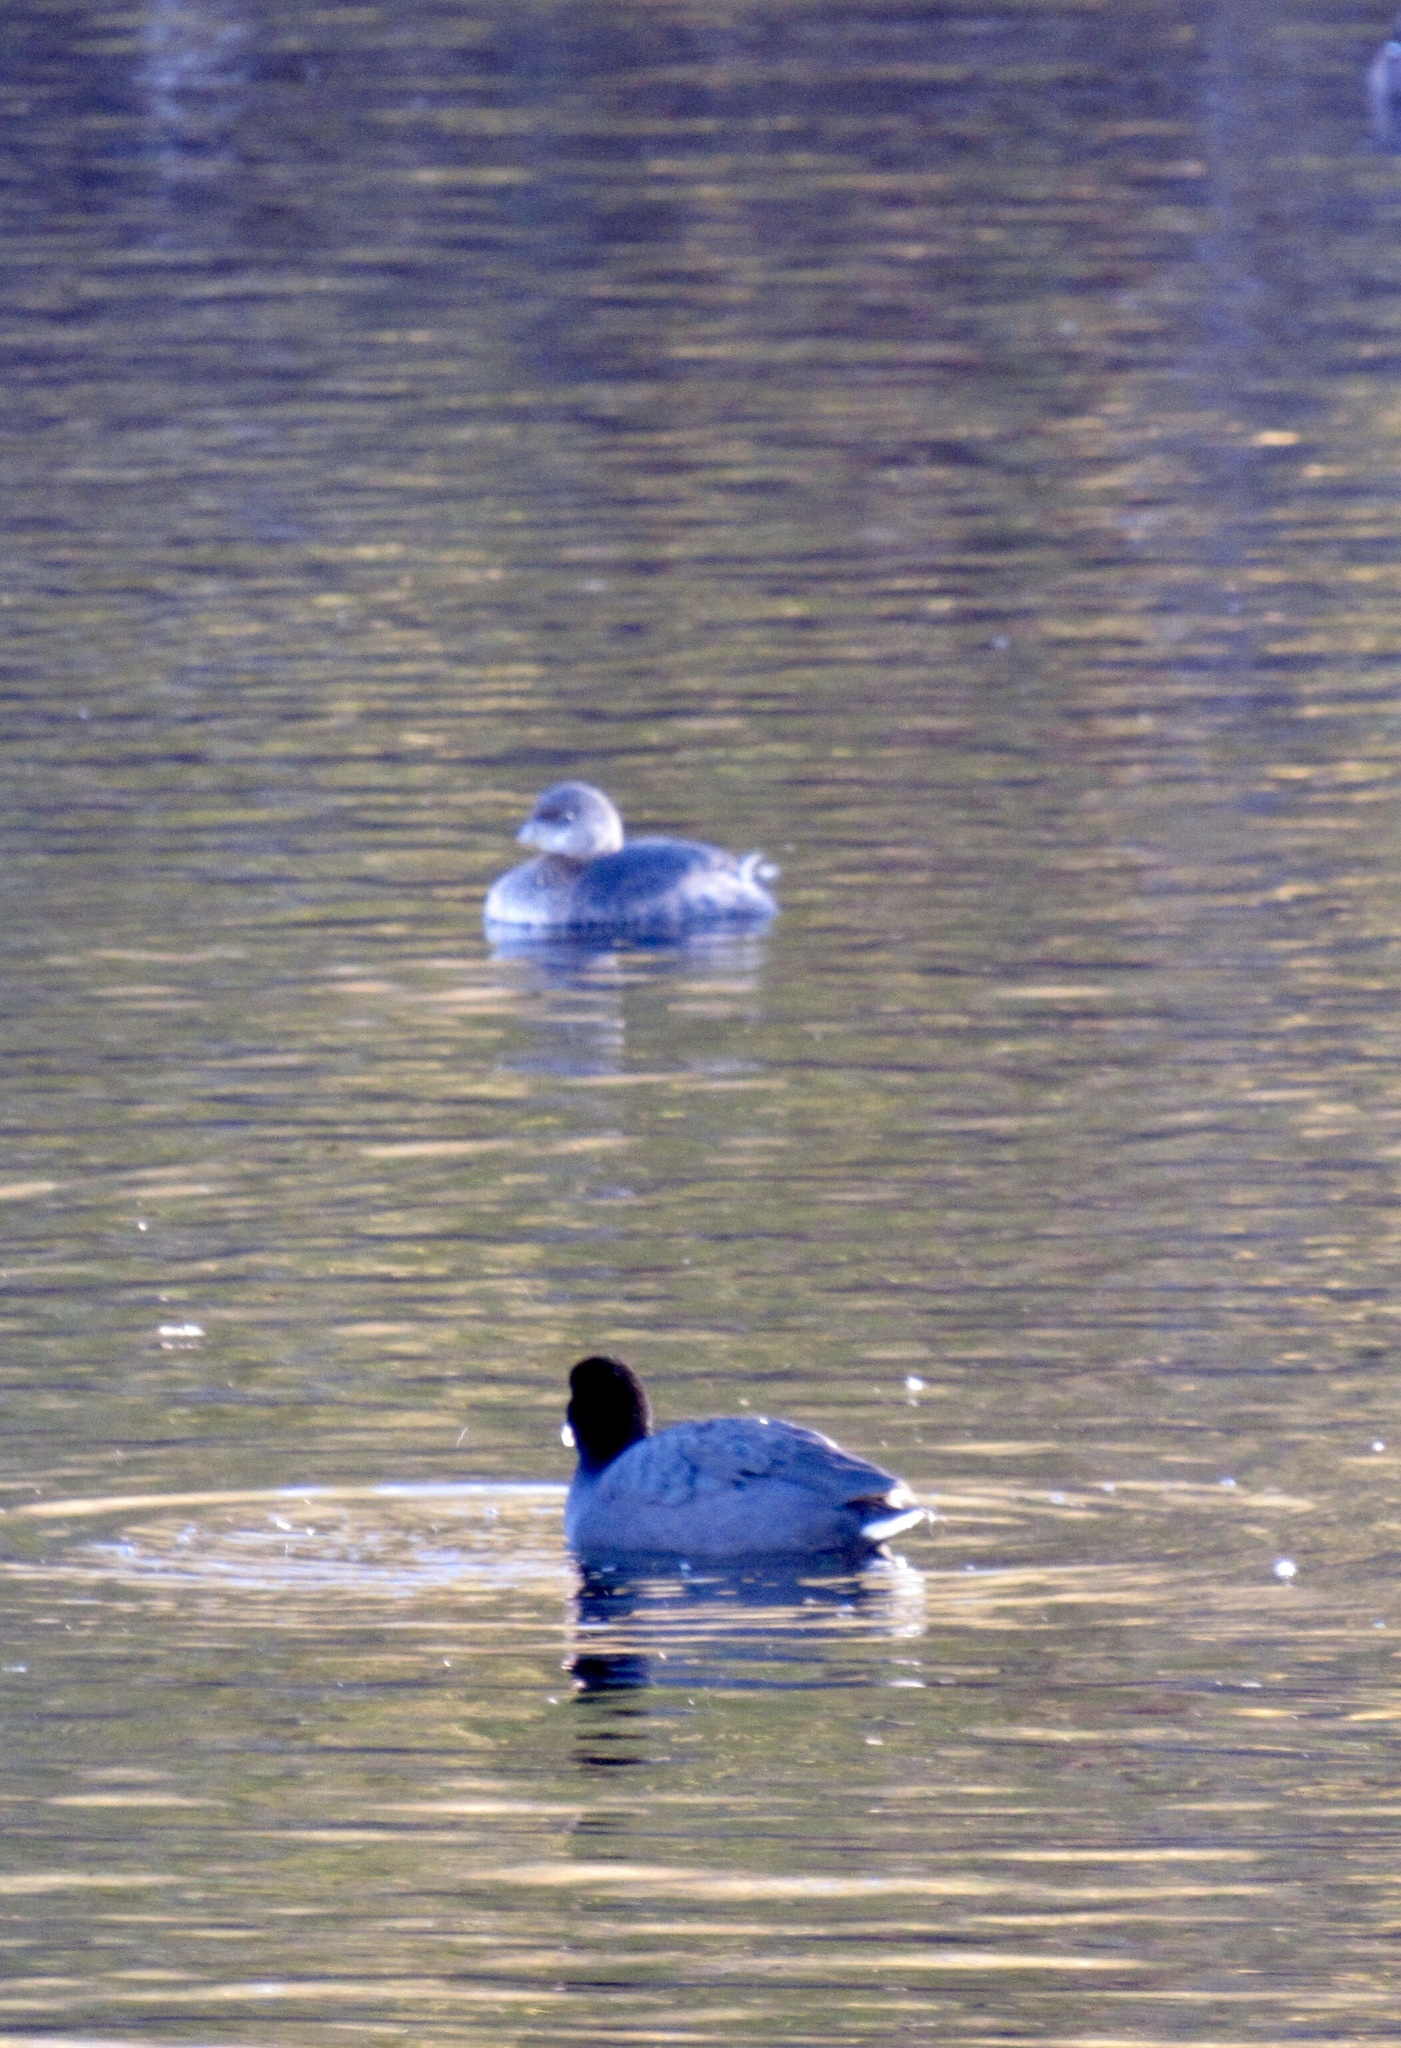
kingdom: Animalia
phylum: Chordata
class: Aves
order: Podicipediformes
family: Podicipedidae
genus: Podilymbus
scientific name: Podilymbus podiceps
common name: Pied-billed grebe
